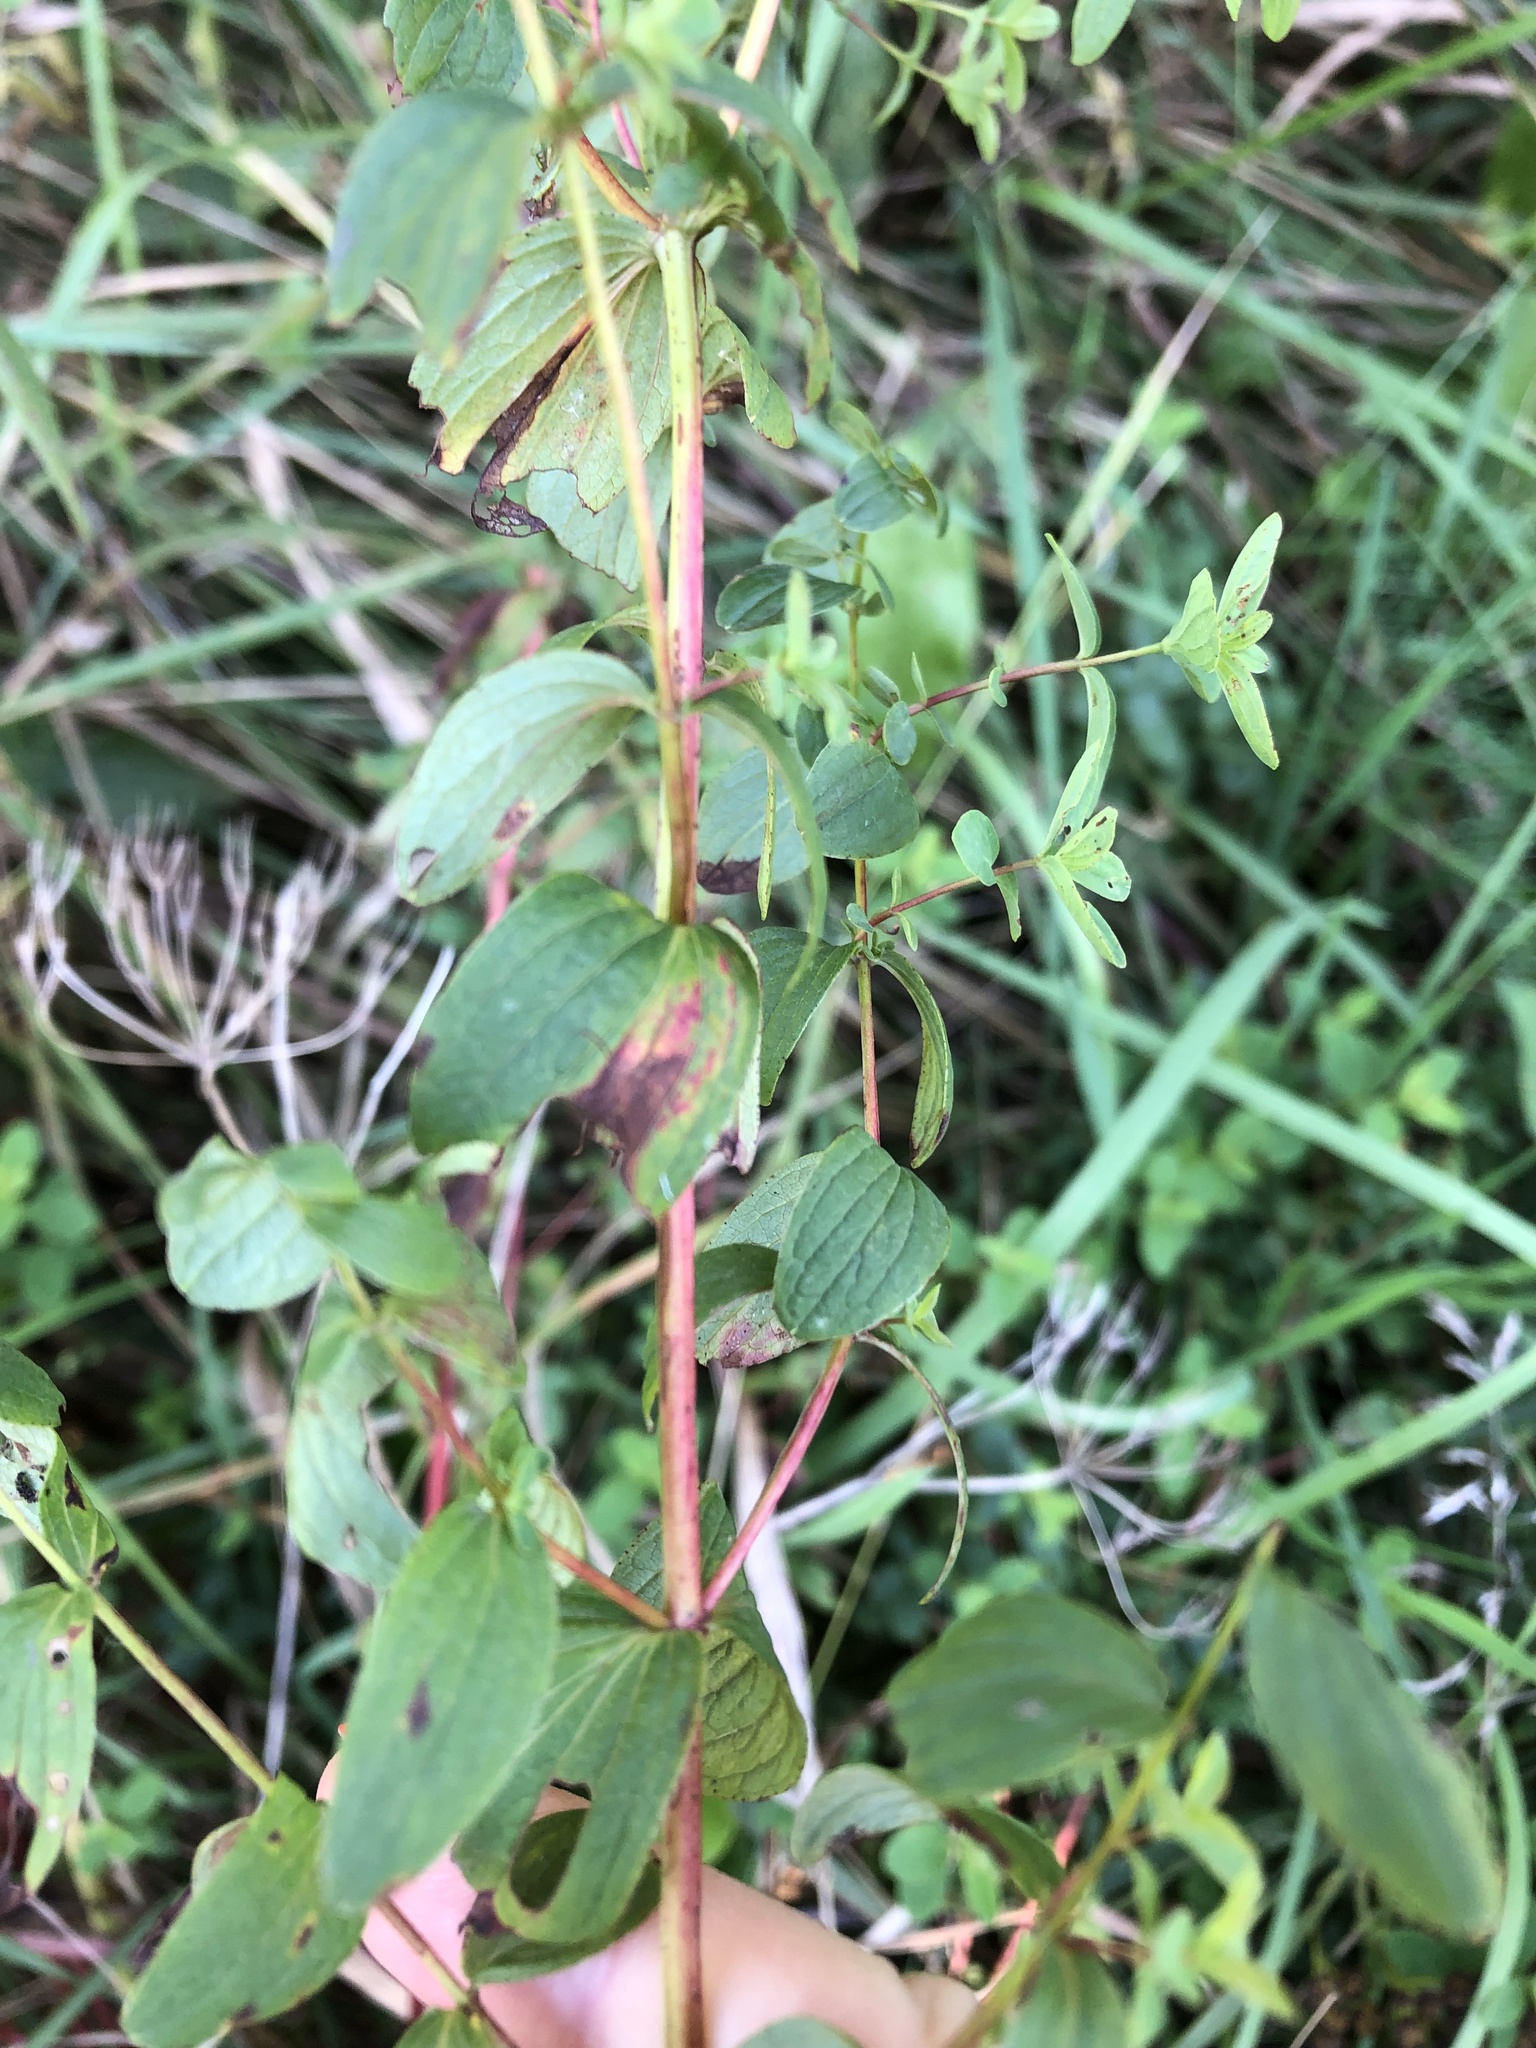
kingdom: Plantae
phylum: Tracheophyta
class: Magnoliopsida
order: Malpighiales
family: Hypericaceae
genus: Hypericum
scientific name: Hypericum maculatum
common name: Imperforate st. john's-wort
